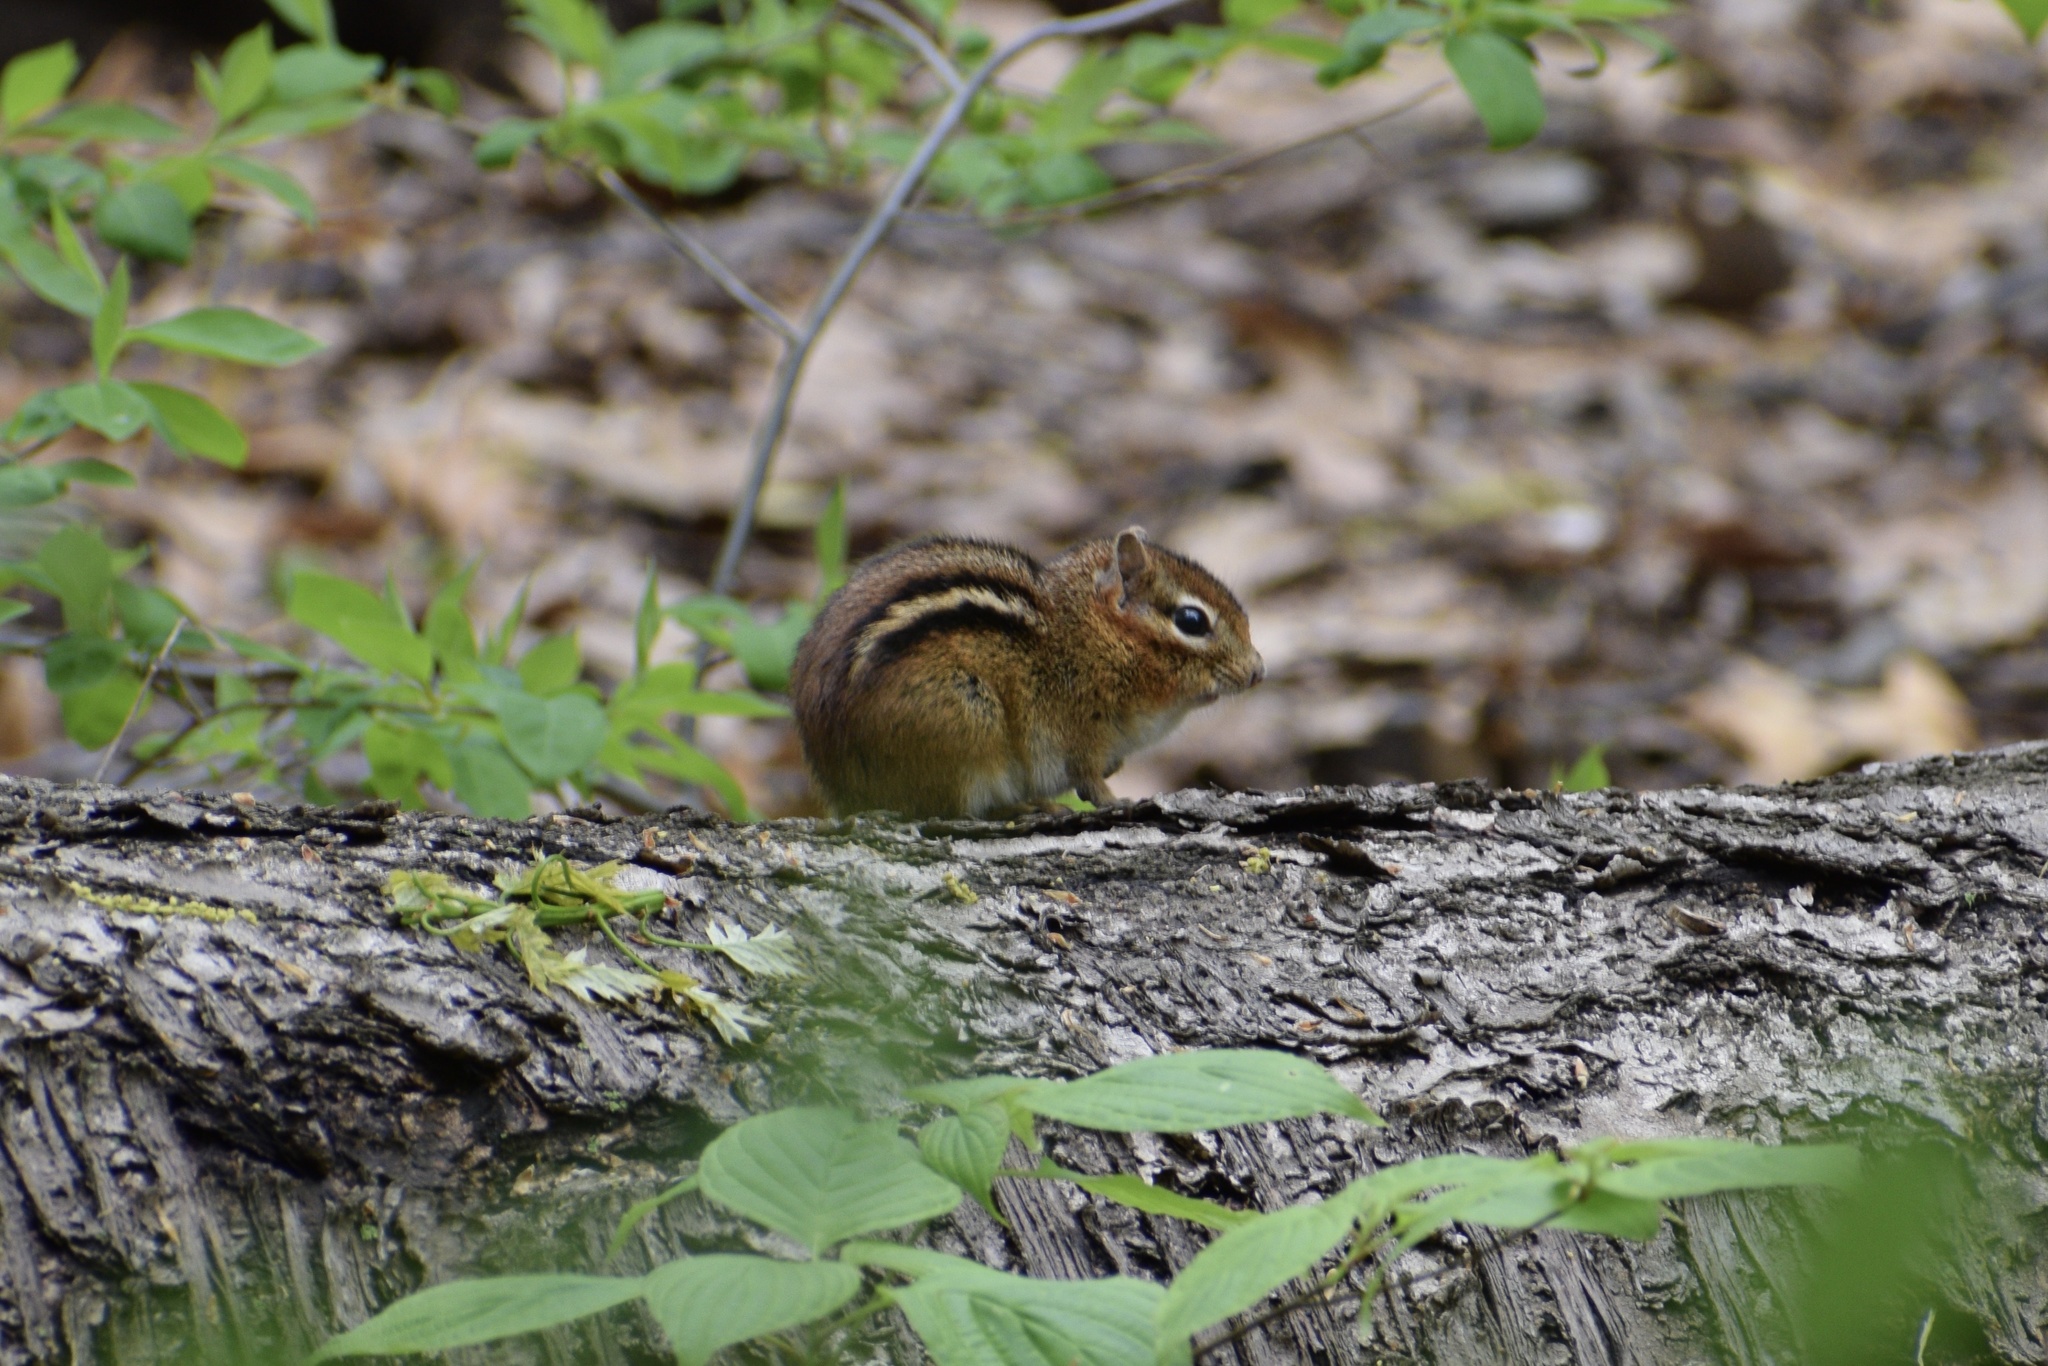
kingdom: Animalia
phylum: Chordata
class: Mammalia
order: Rodentia
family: Sciuridae
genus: Tamias
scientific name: Tamias striatus
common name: Eastern chipmunk
